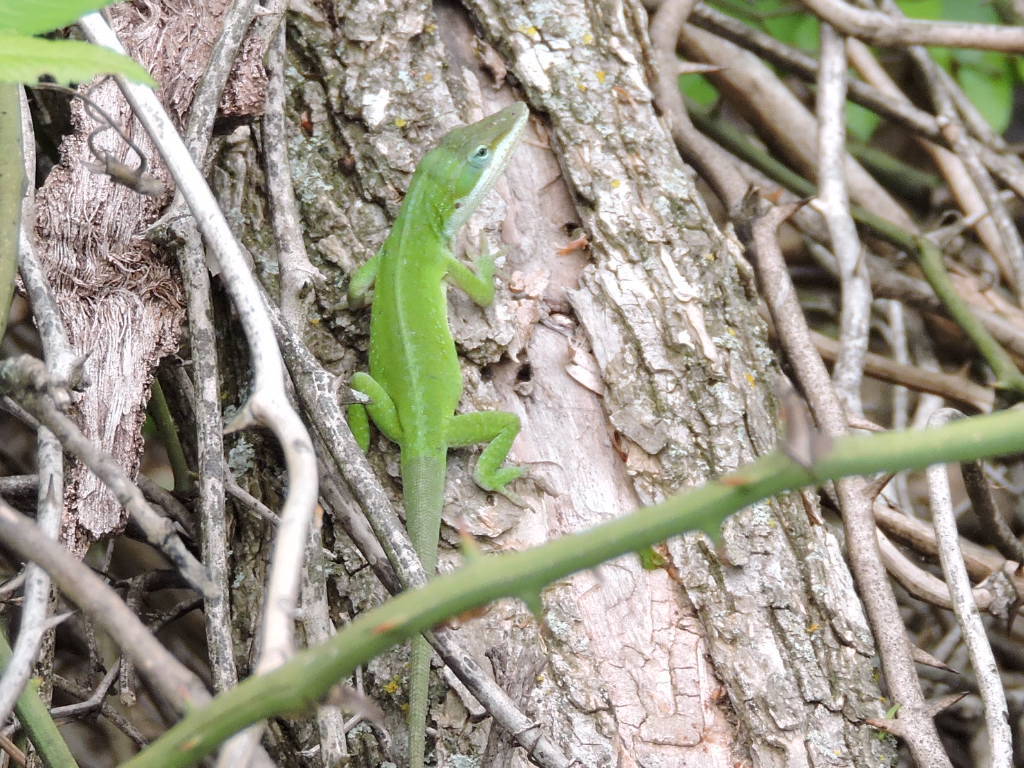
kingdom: Animalia
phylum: Chordata
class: Squamata
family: Dactyloidae
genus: Anolis
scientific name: Anolis carolinensis
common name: Green anole
